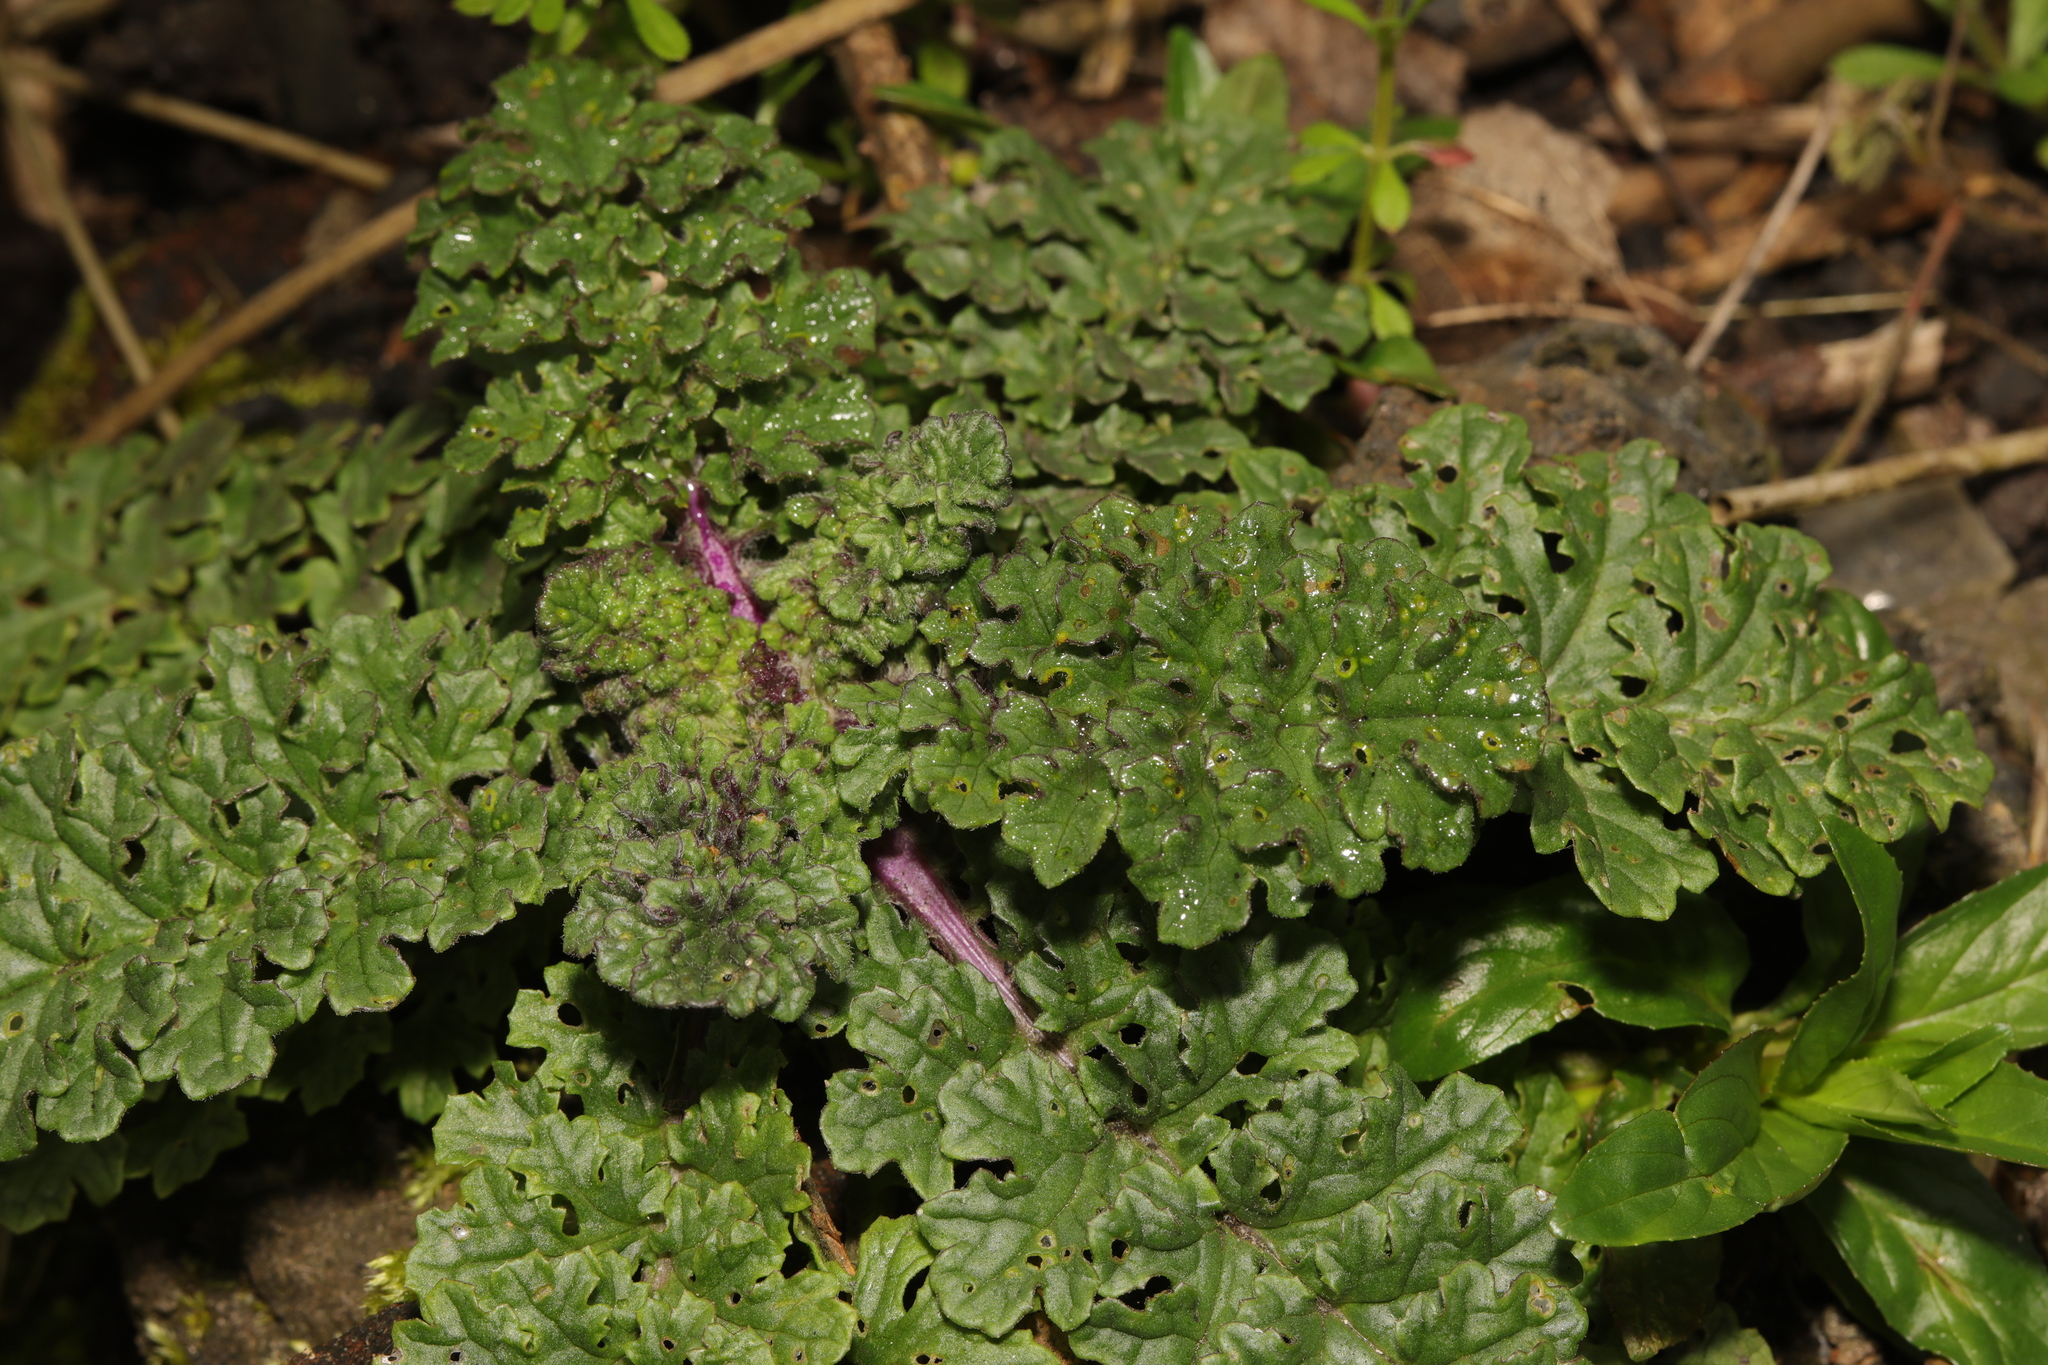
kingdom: Plantae
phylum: Tracheophyta
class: Magnoliopsida
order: Asterales
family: Asteraceae
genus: Jacobaea
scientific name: Jacobaea vulgaris
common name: Stinking willie
